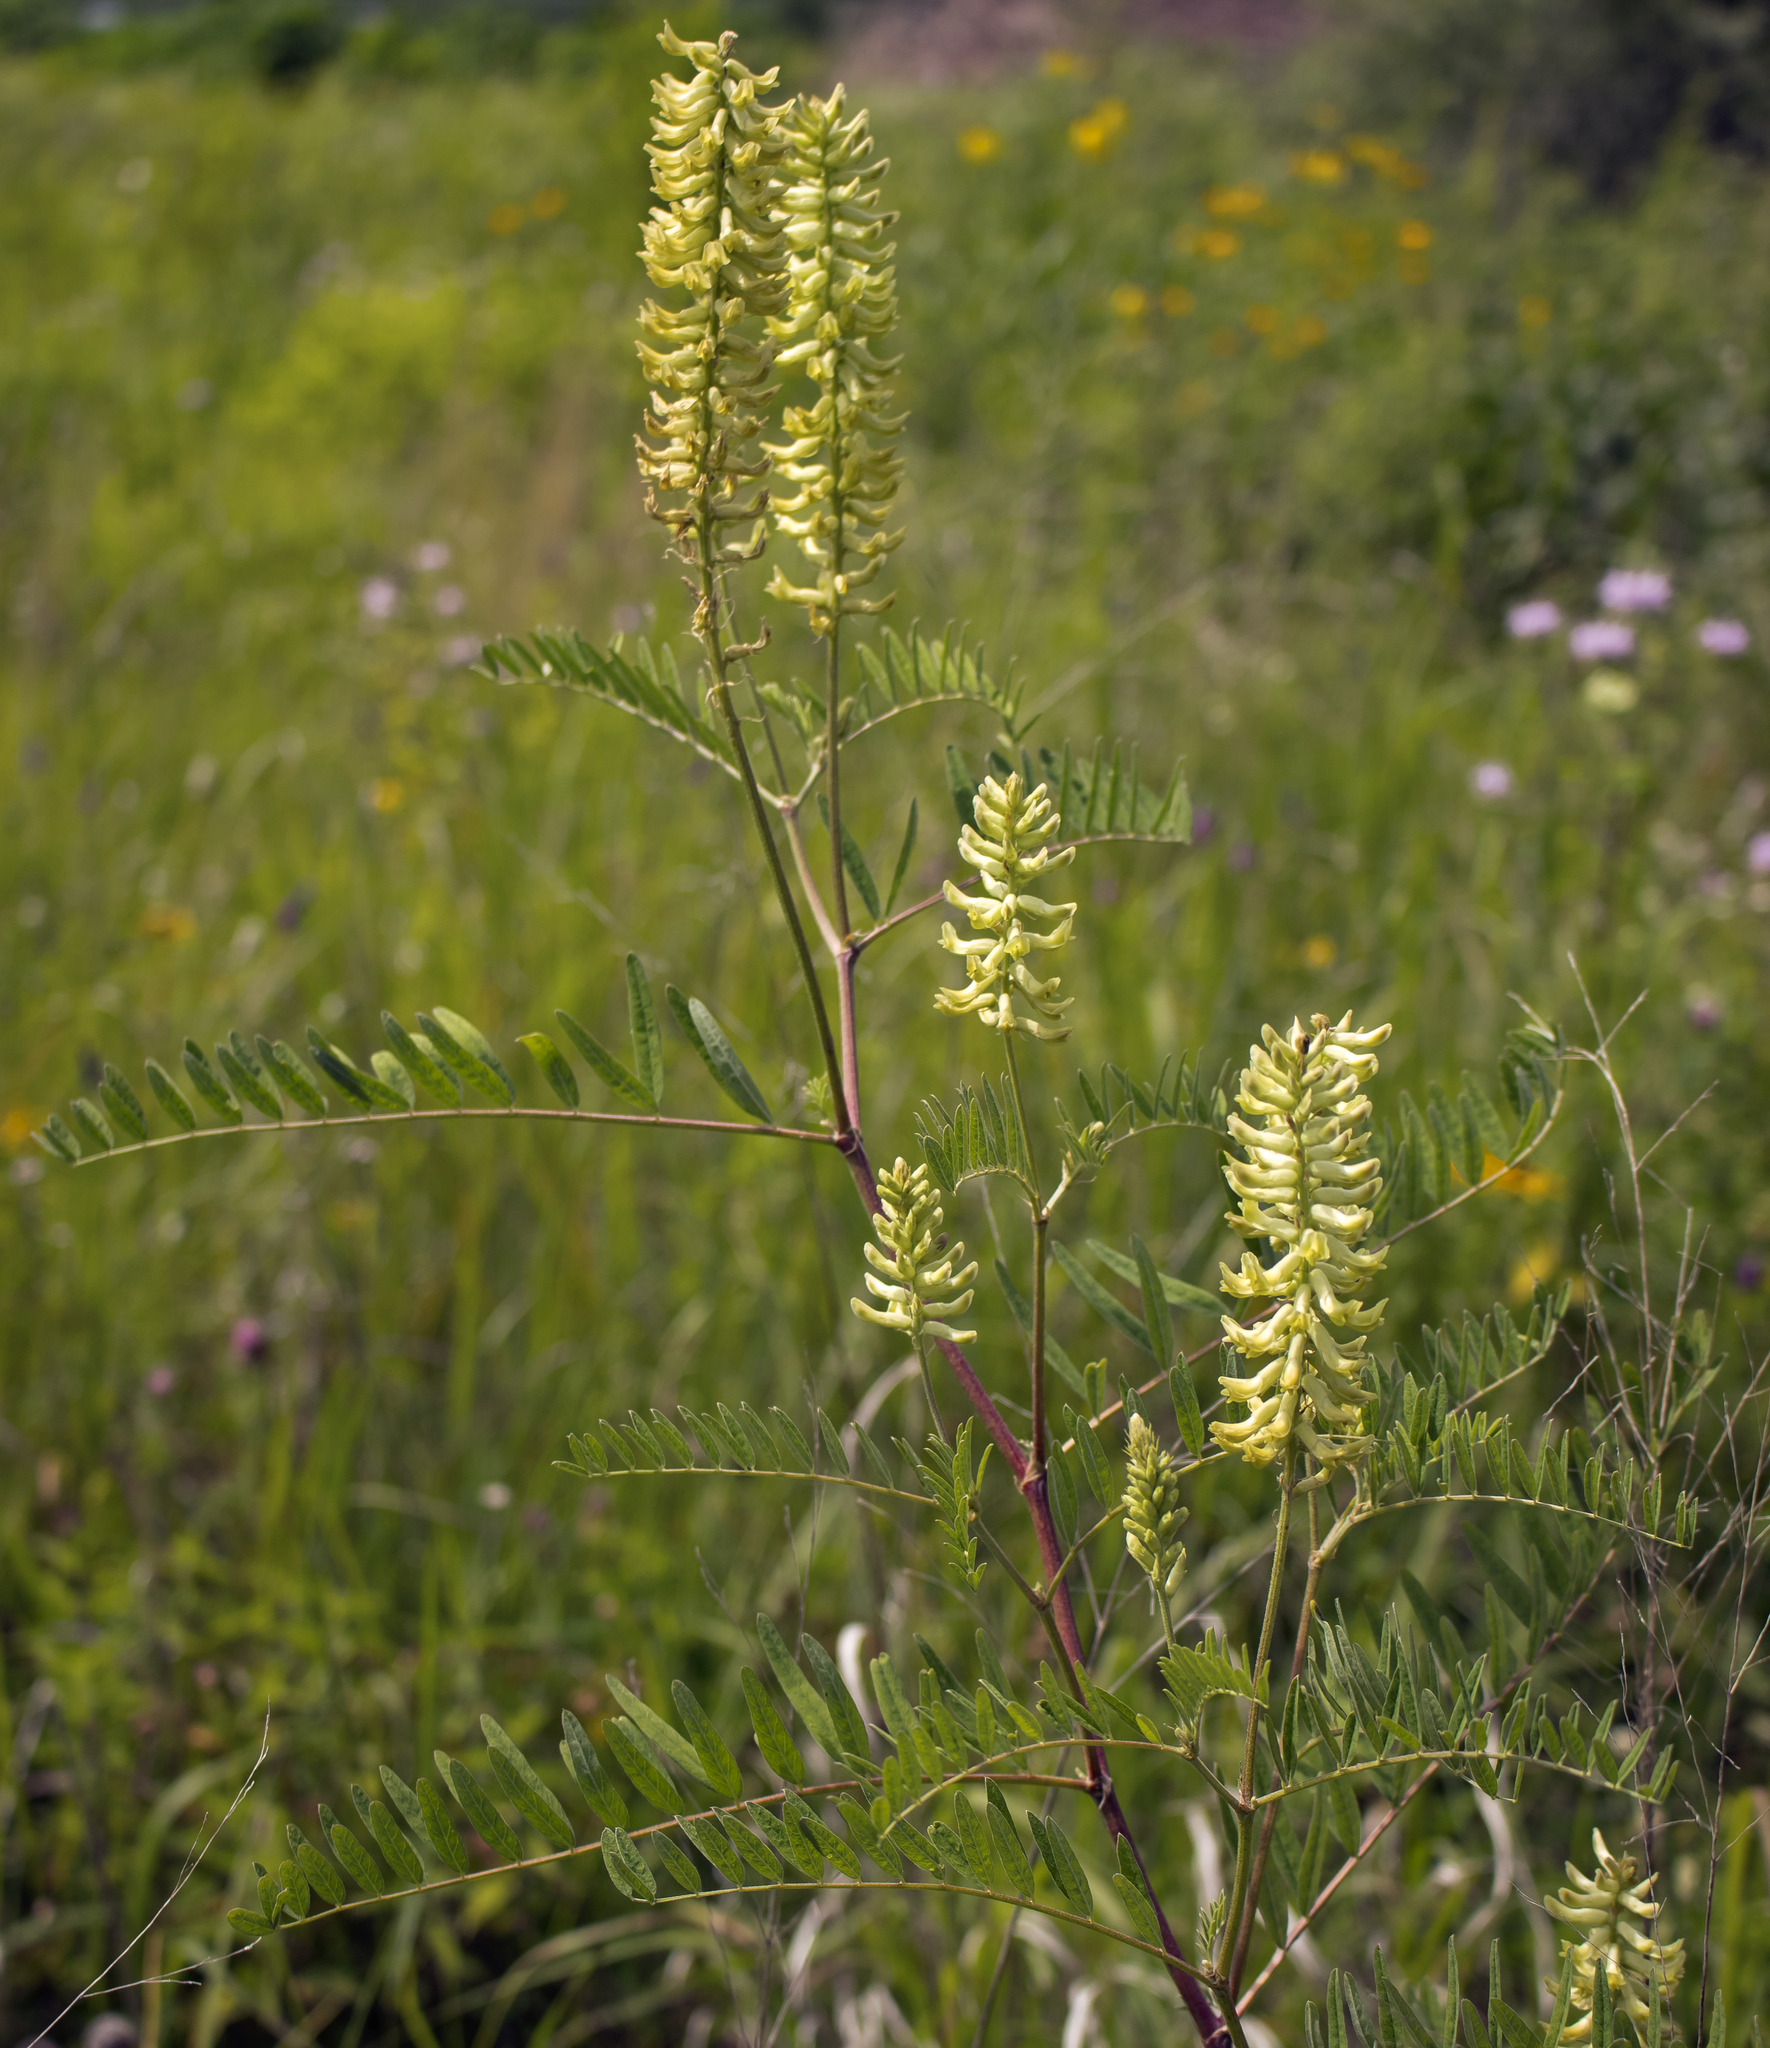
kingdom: Plantae
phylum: Tracheophyta
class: Magnoliopsida
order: Fabales
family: Fabaceae
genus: Astragalus
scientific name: Astragalus canadensis
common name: Canada milk-vetch
